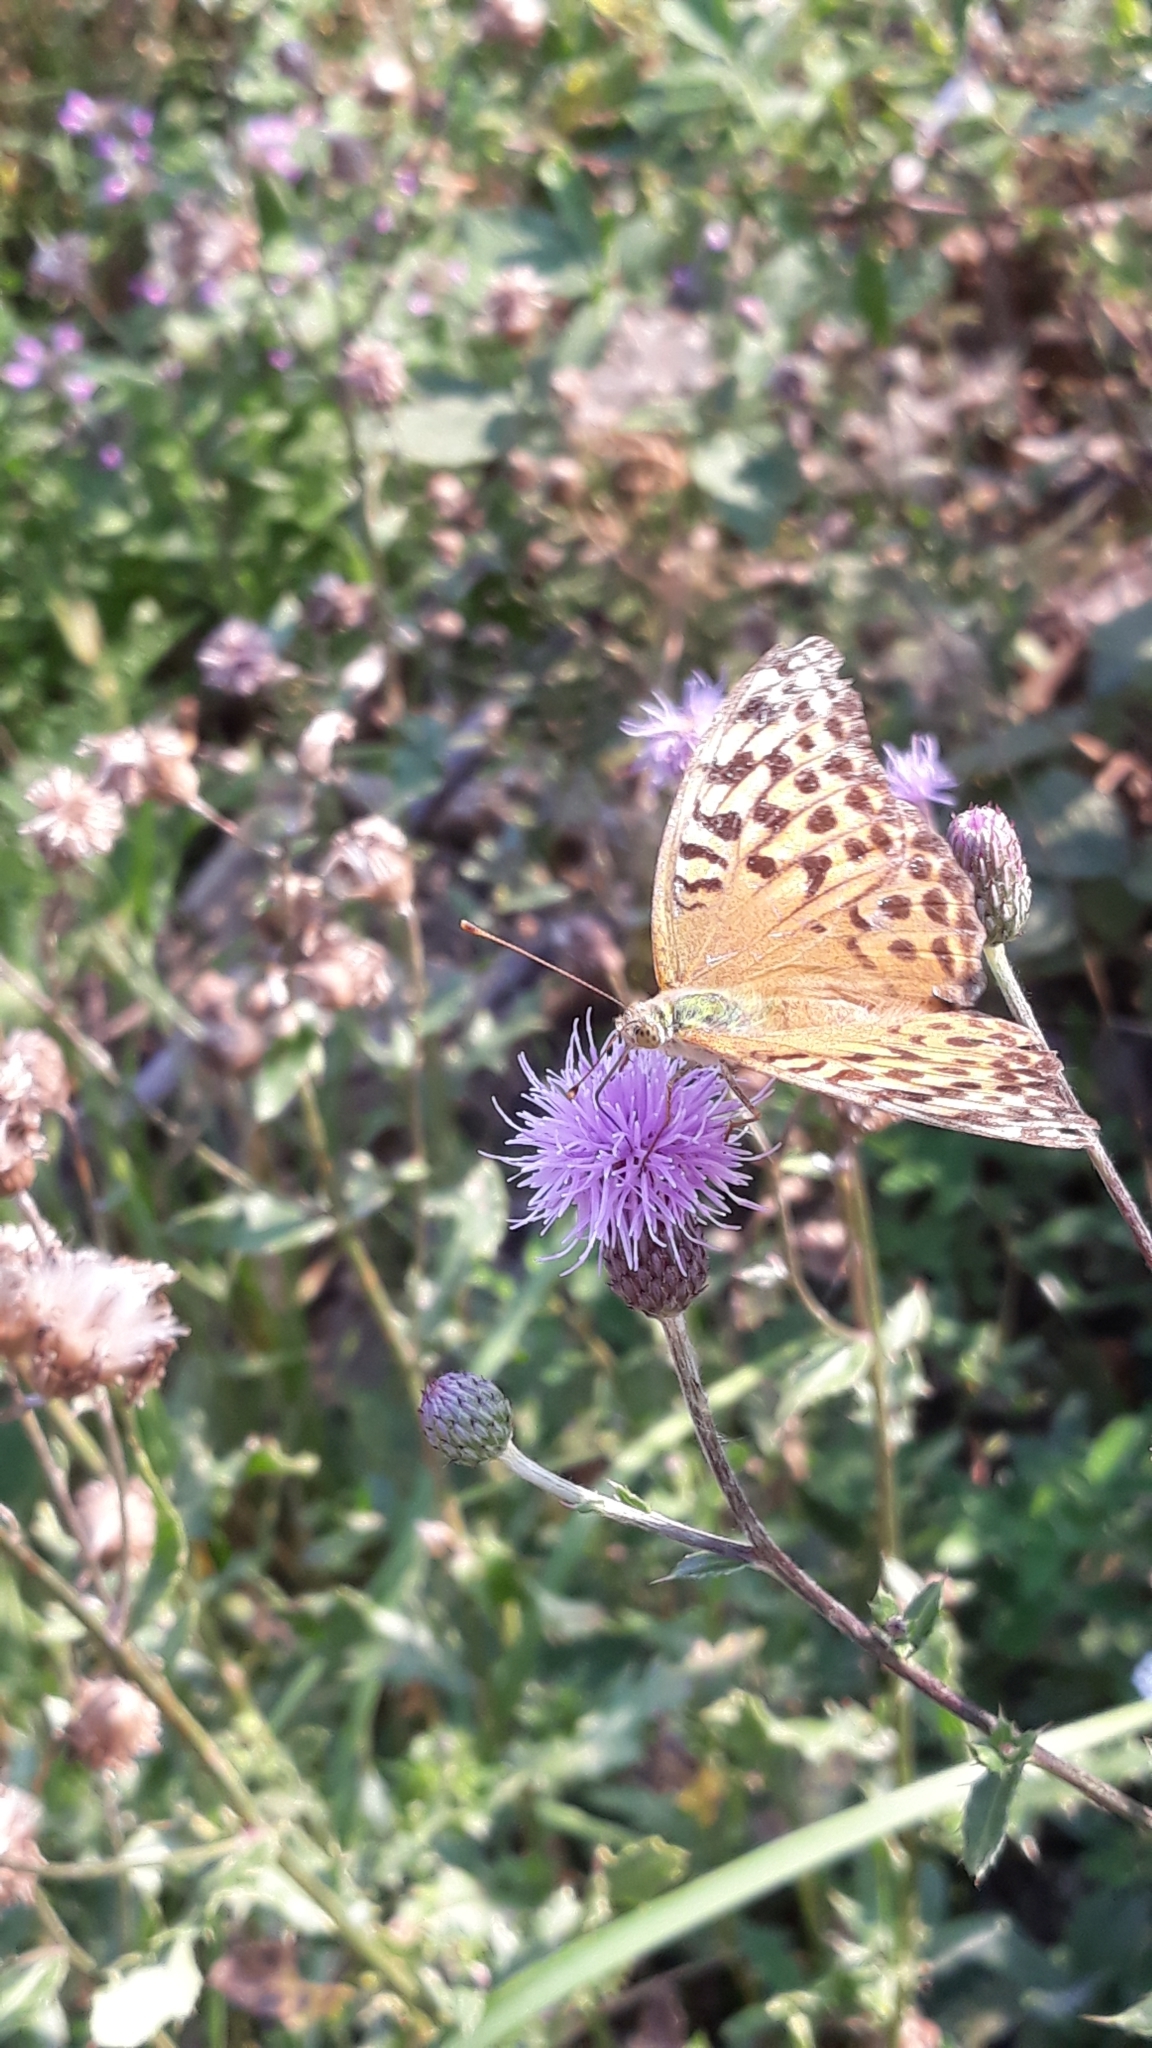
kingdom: Animalia
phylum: Arthropoda
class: Insecta
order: Lepidoptera
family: Nymphalidae
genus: Argynnis
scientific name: Argynnis paphia
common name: Silver-washed fritillary
